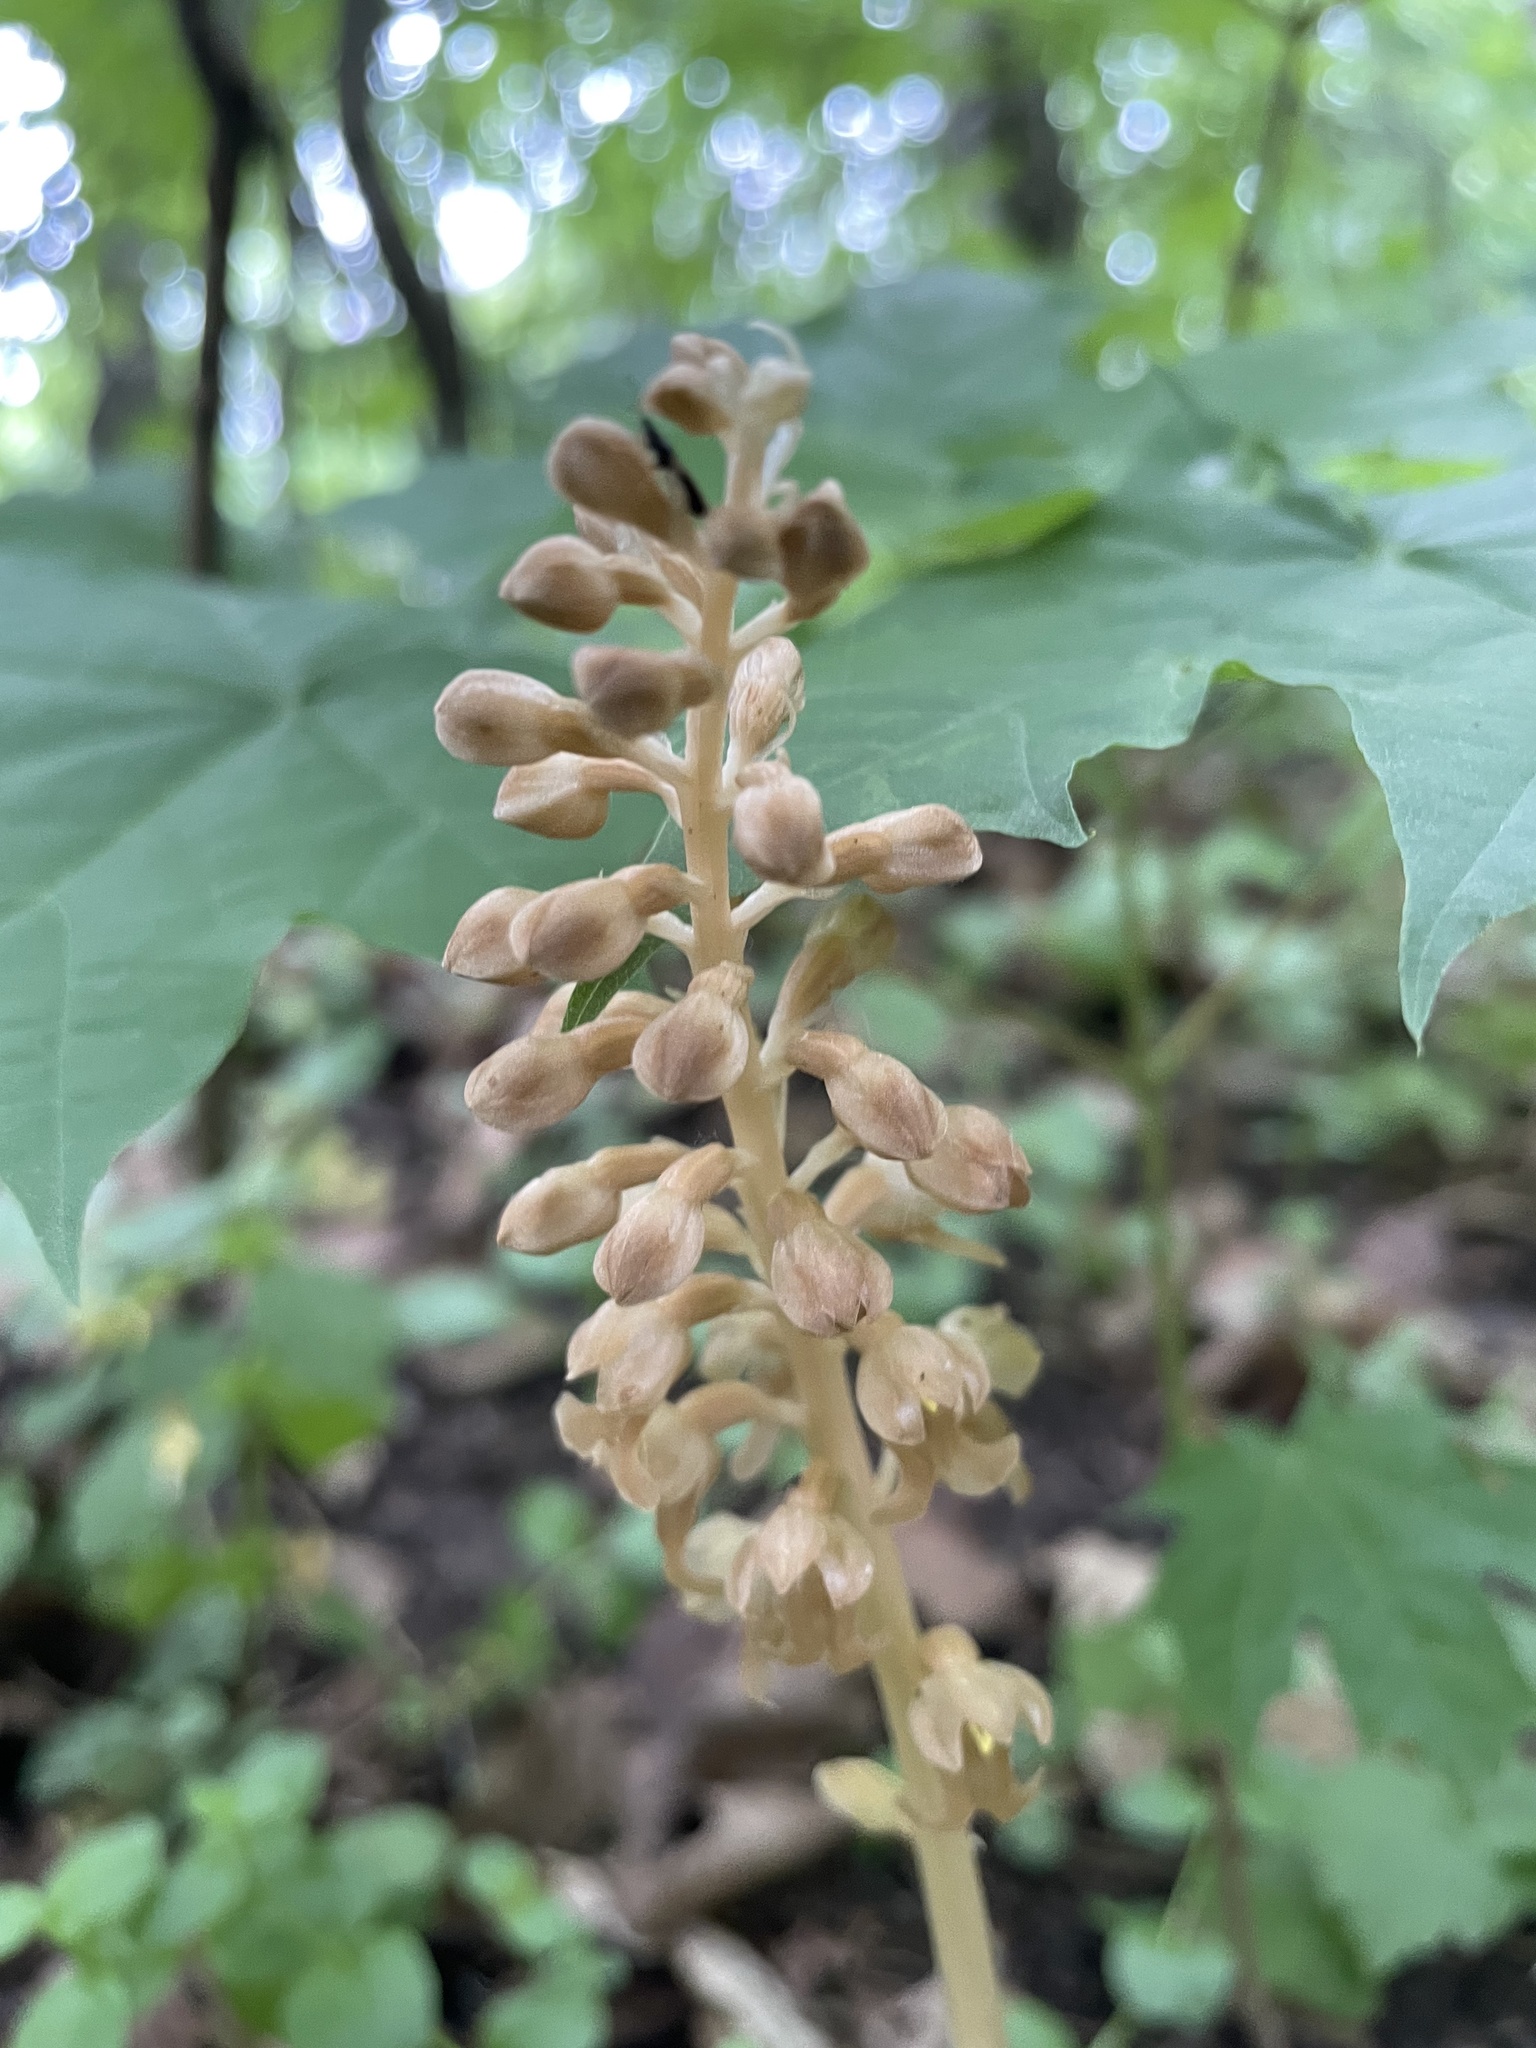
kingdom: Plantae
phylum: Tracheophyta
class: Liliopsida
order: Asparagales
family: Orchidaceae
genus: Neottia
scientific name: Neottia nidus-avis
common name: Bird's-nest orchid
